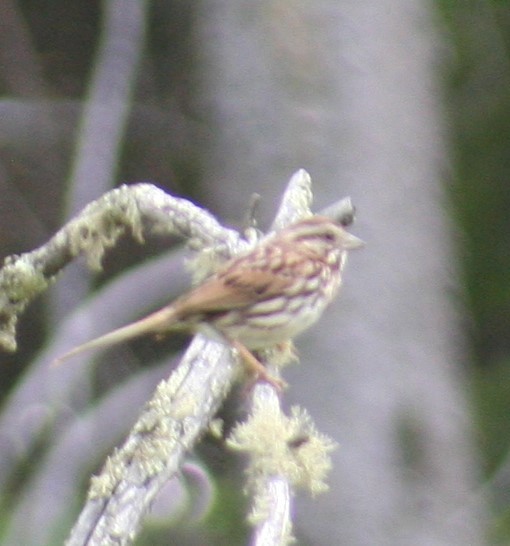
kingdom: Animalia
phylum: Chordata
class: Aves
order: Passeriformes
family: Passerellidae
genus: Melospiza
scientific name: Melospiza melodia
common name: Song sparrow
